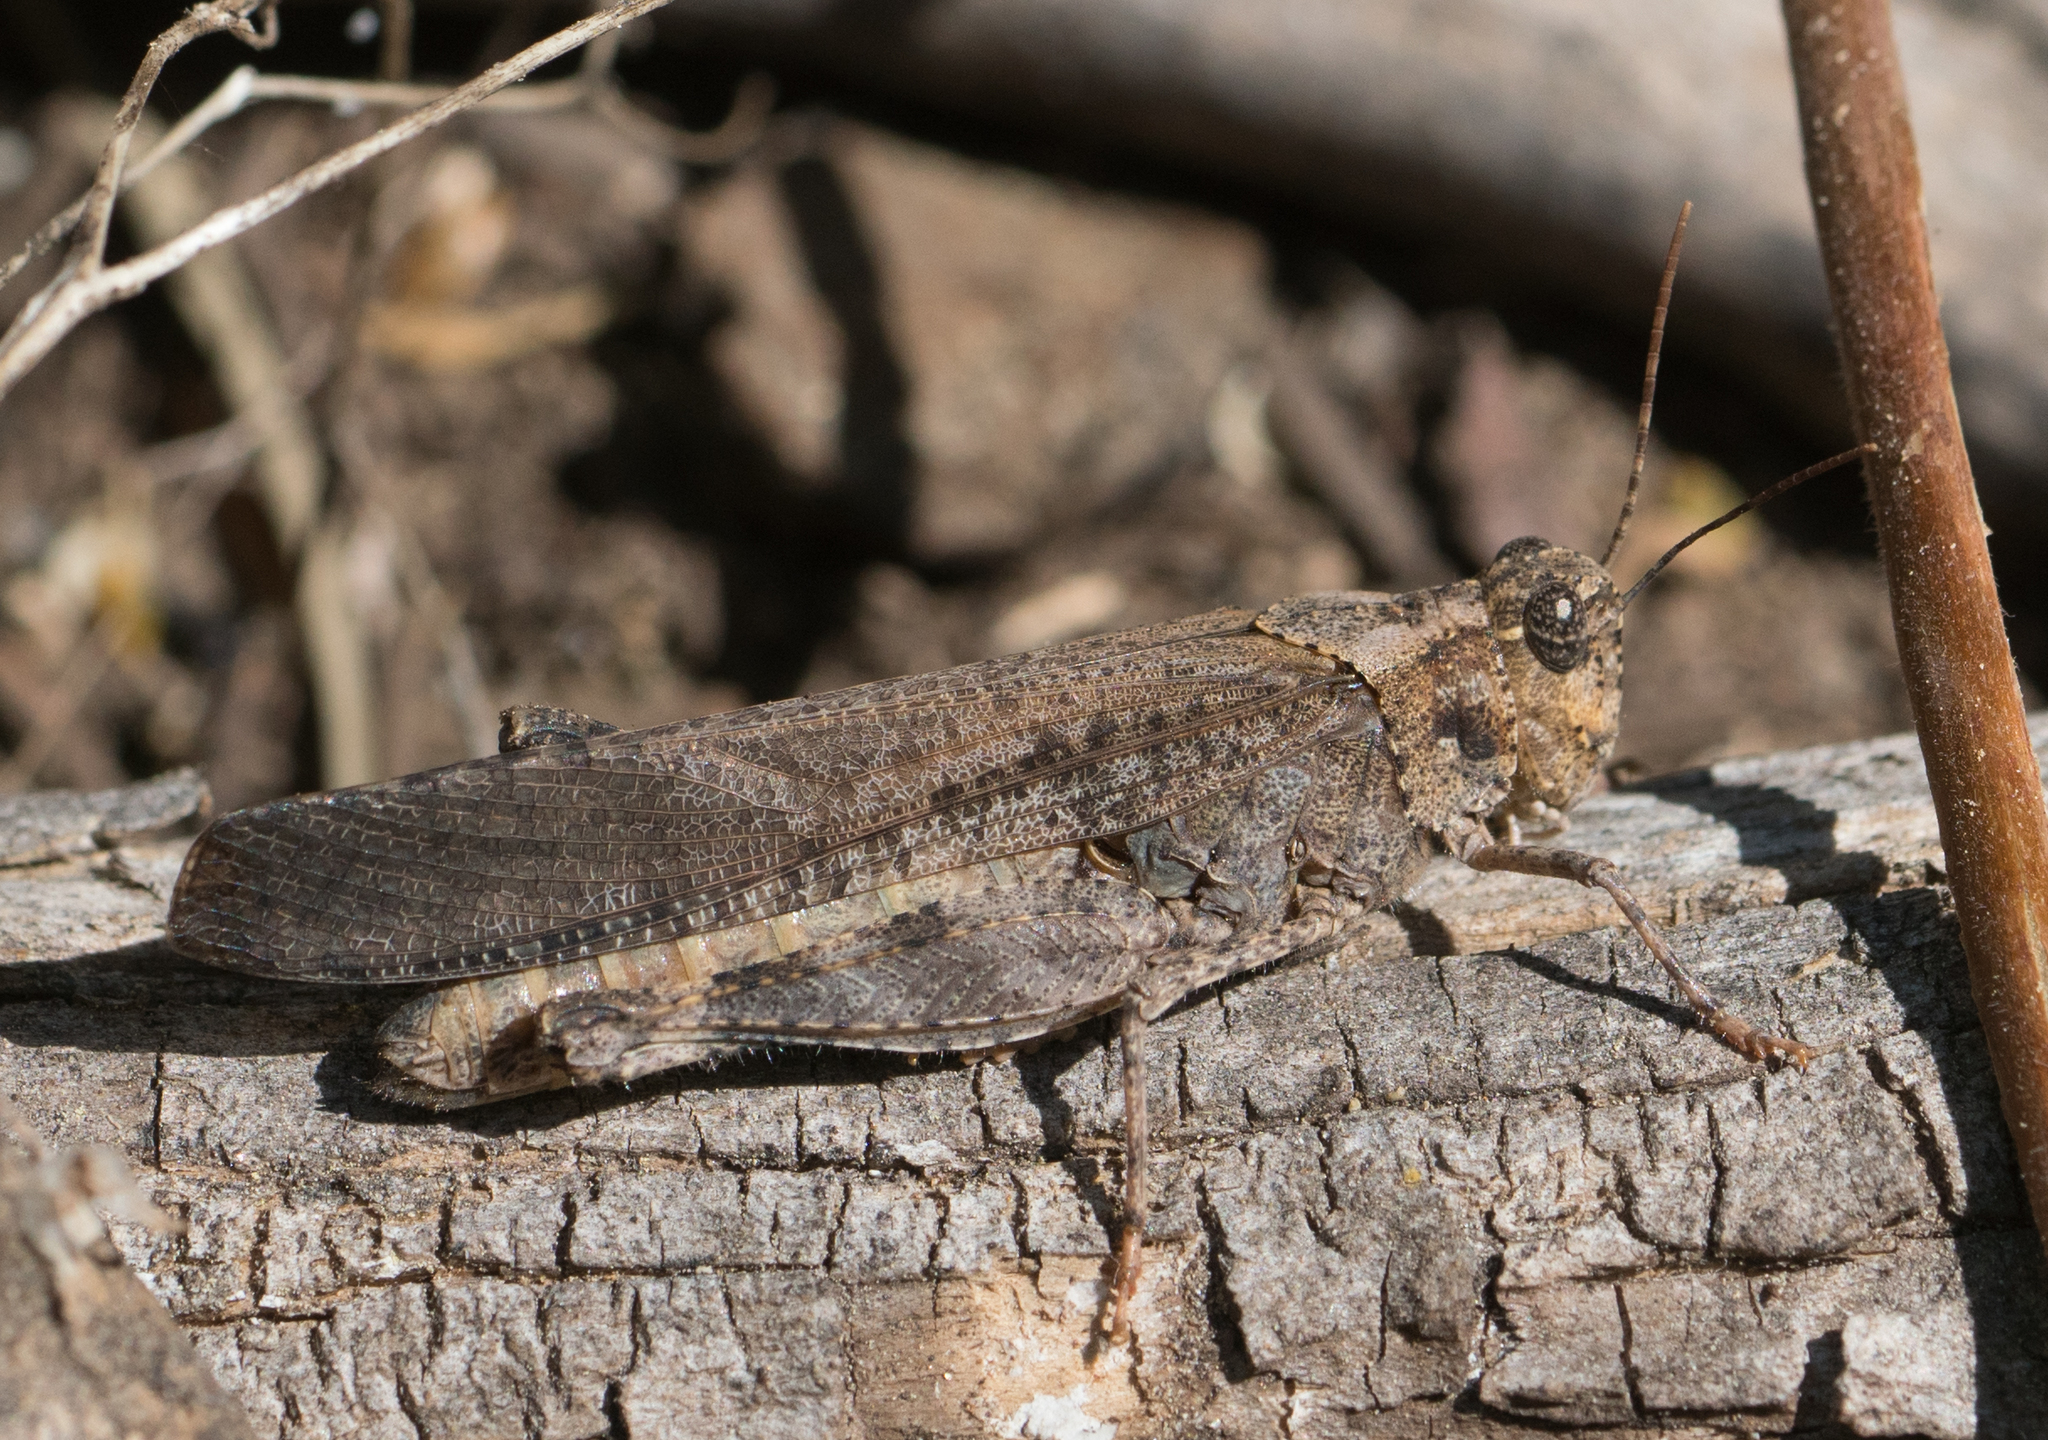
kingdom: Animalia
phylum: Arthropoda
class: Insecta
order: Orthoptera
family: Acrididae
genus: Trimerotropis
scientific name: Trimerotropis verruculata
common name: Crackling forest grasshopper
